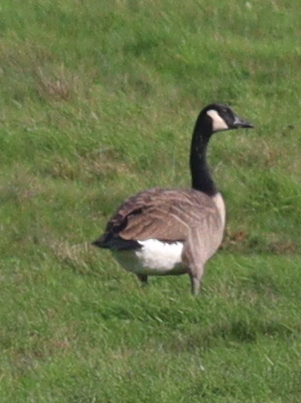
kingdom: Animalia
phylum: Chordata
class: Aves
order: Anseriformes
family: Anatidae
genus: Branta
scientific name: Branta canadensis
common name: Canada goose
